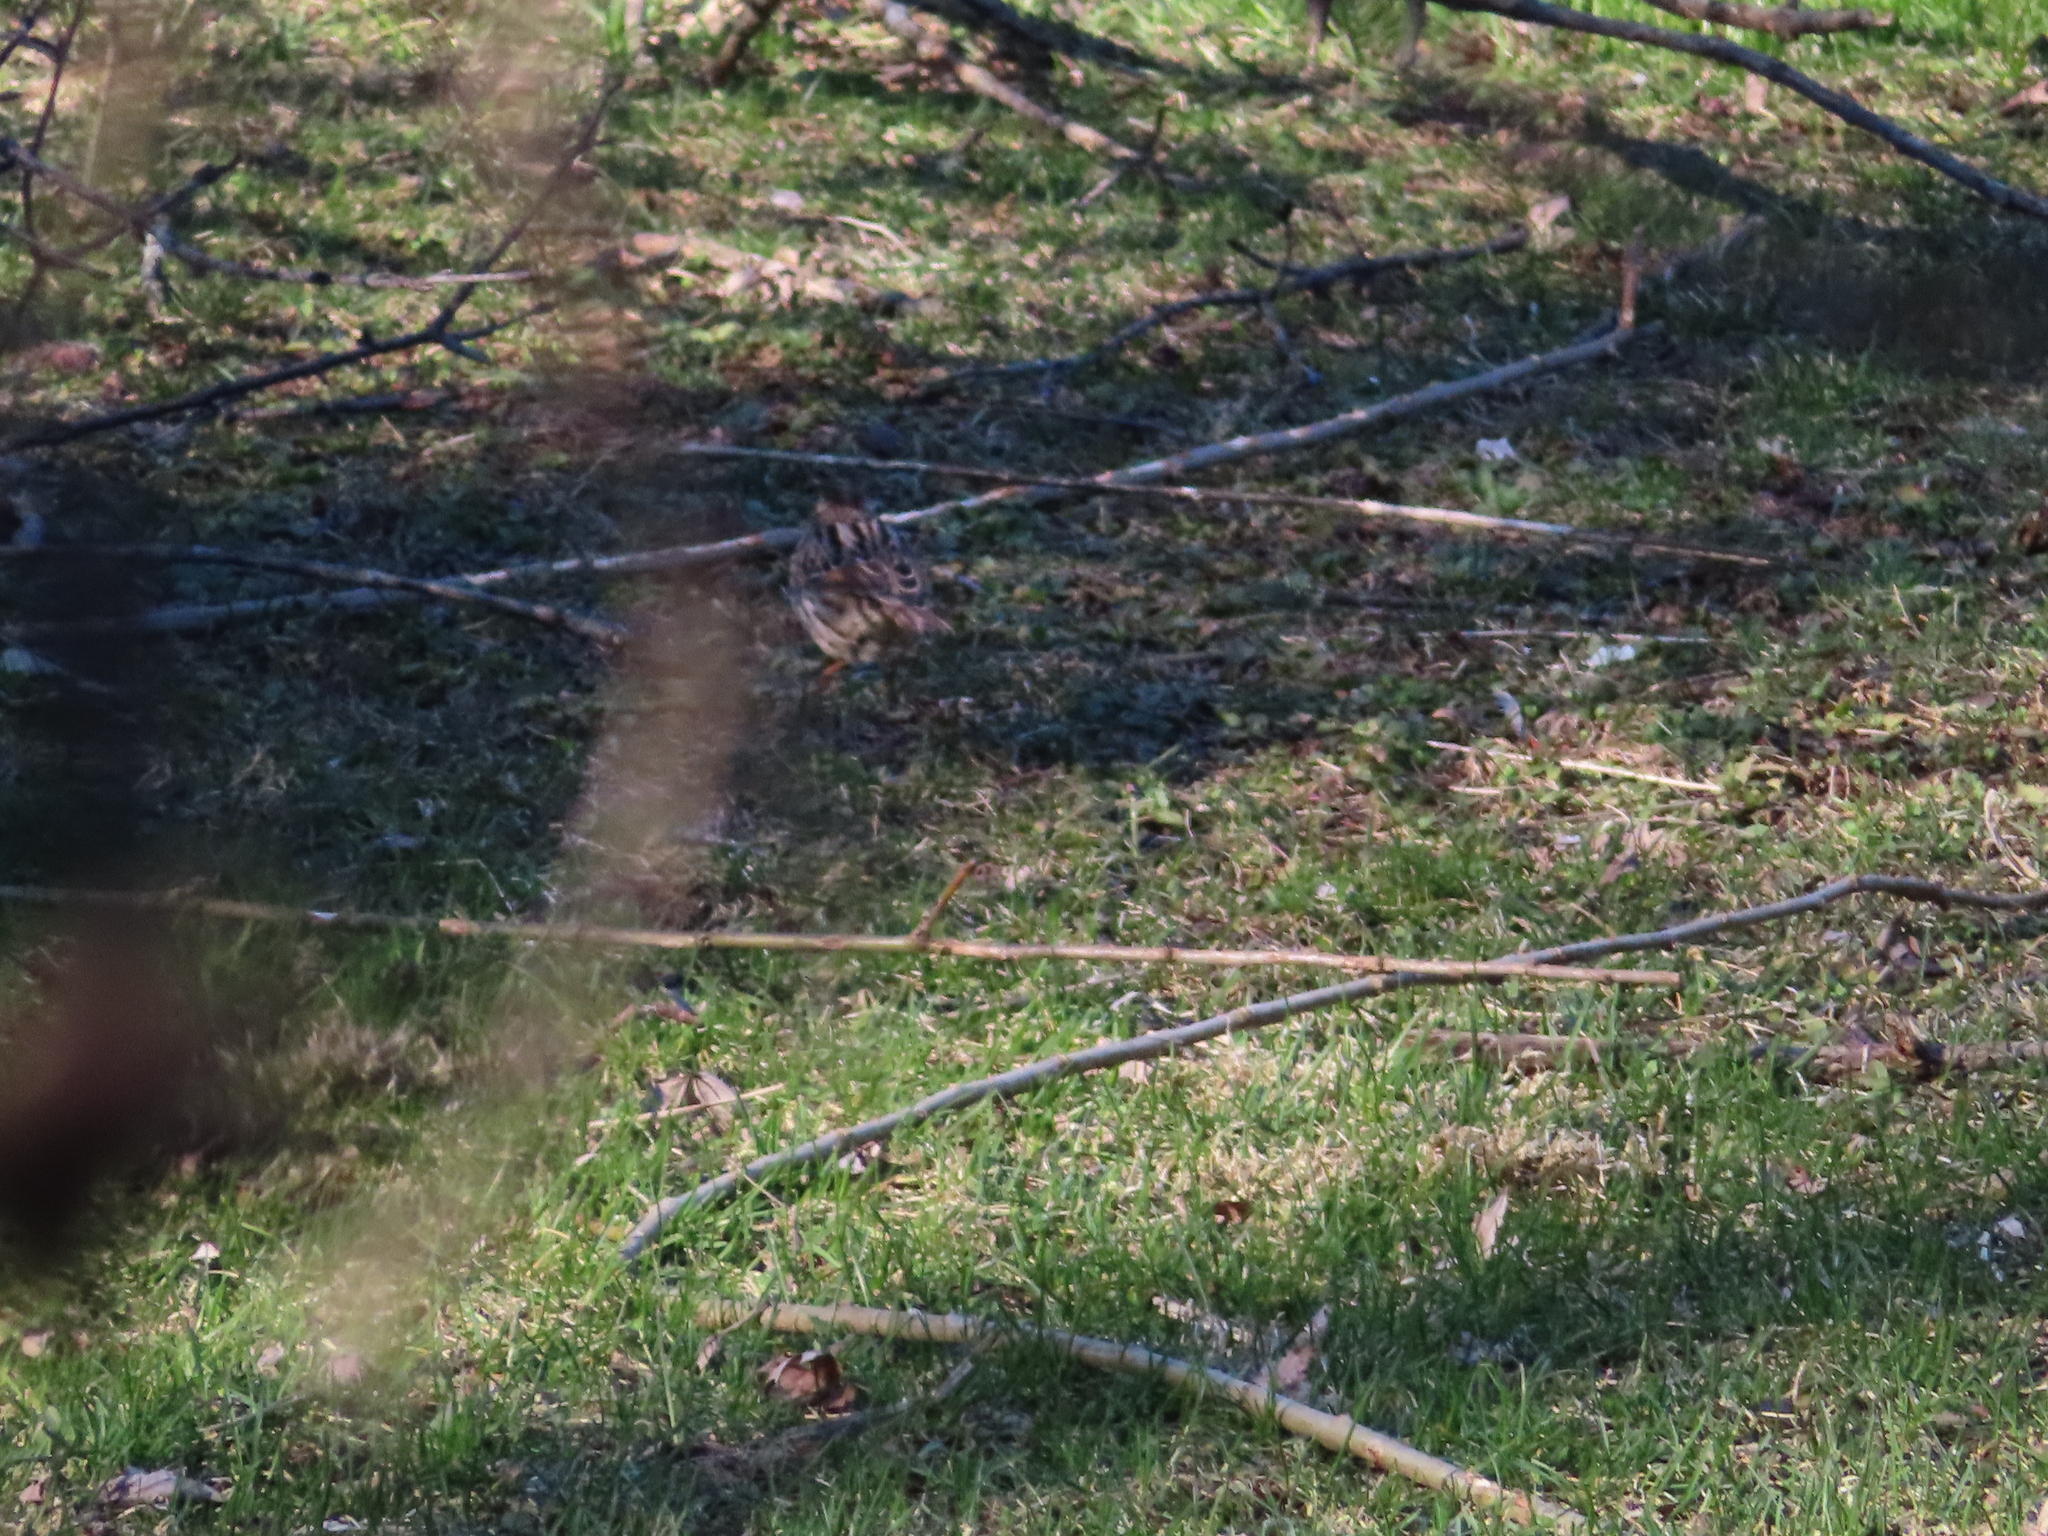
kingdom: Animalia
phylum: Chordata
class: Aves
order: Passeriformes
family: Passerellidae
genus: Melospiza
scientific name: Melospiza melodia
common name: Song sparrow
